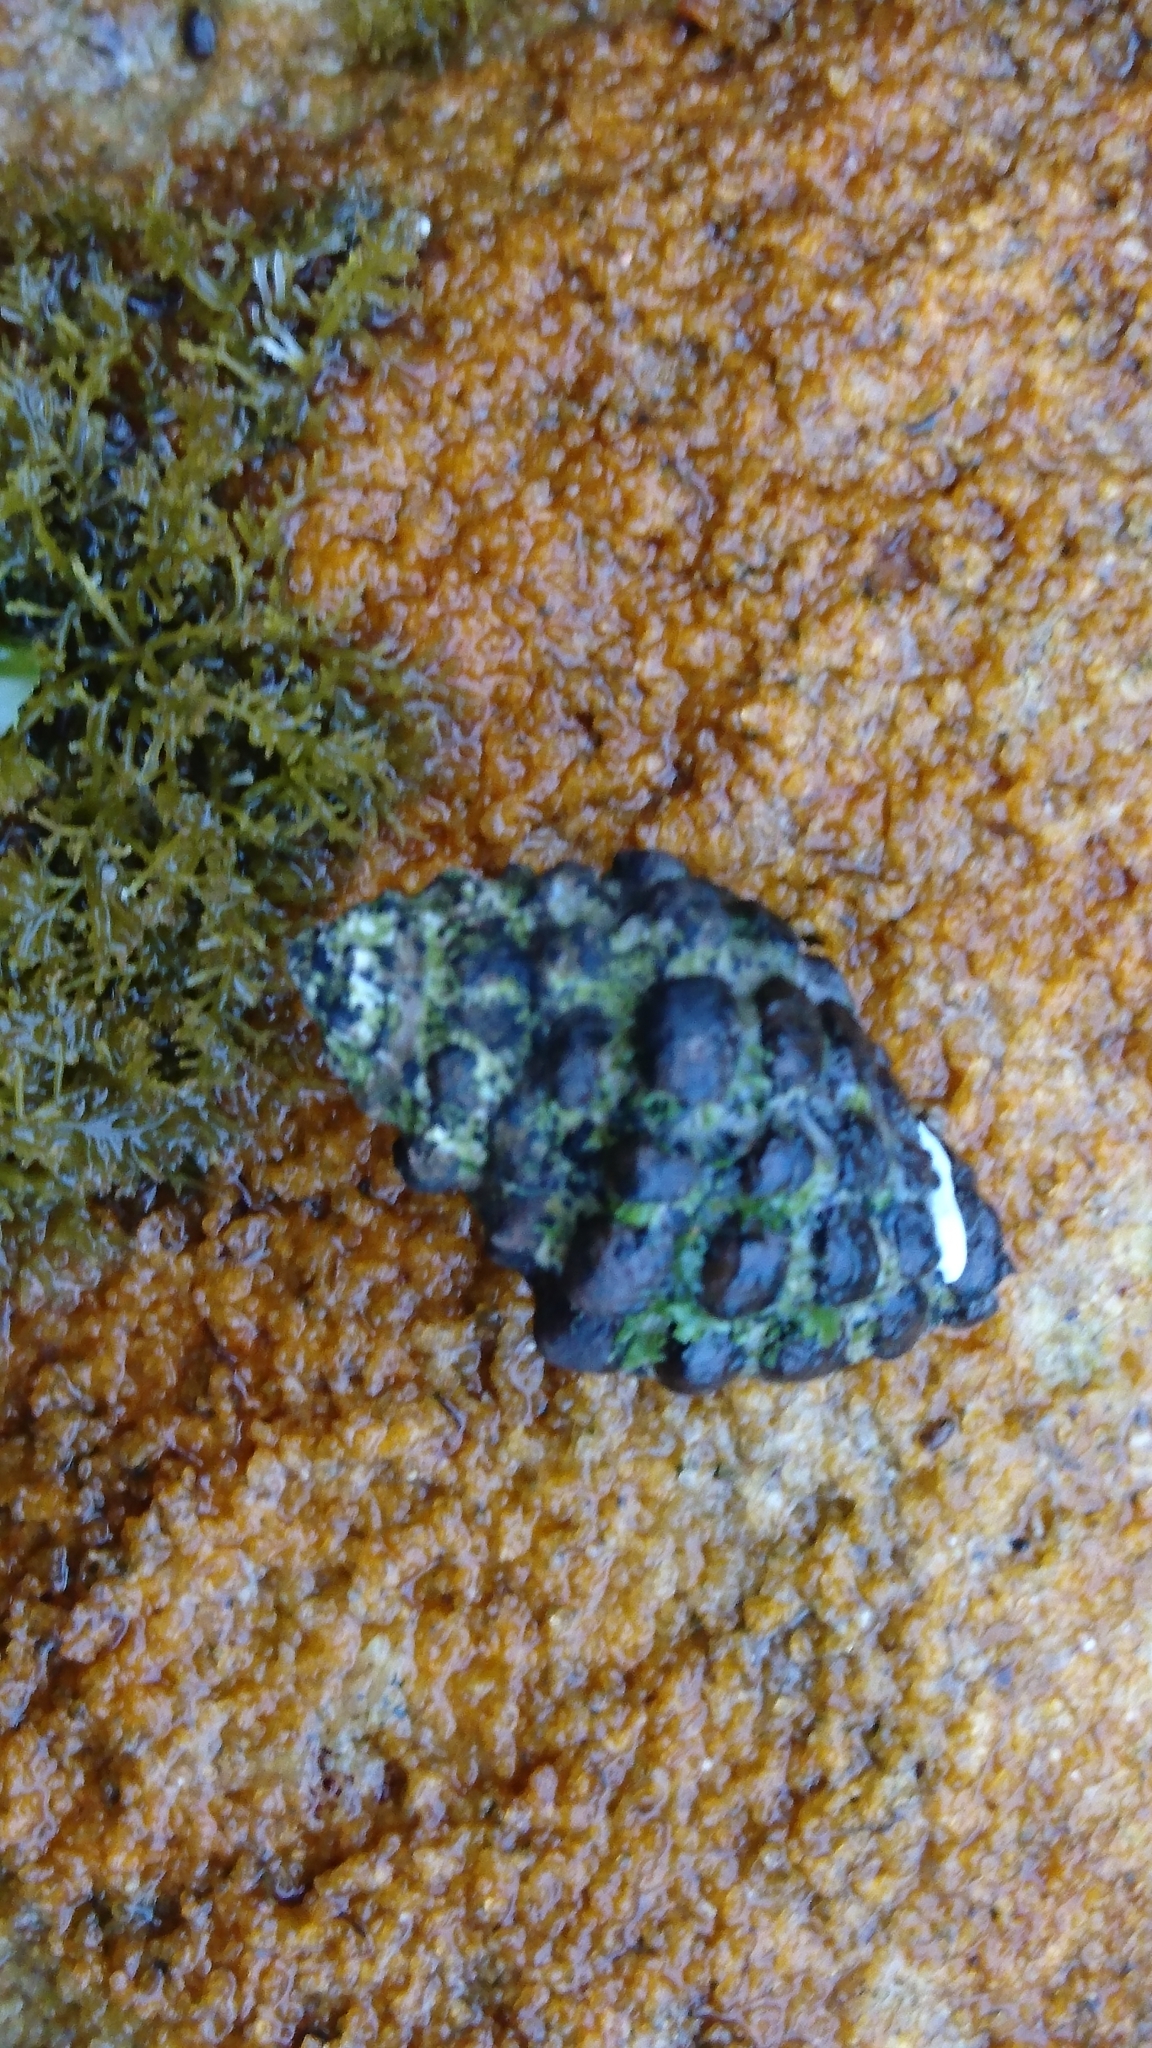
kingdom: Animalia
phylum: Mollusca
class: Gastropoda
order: Neogastropoda
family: Muricidae
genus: Tenguella
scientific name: Tenguella marginalba
